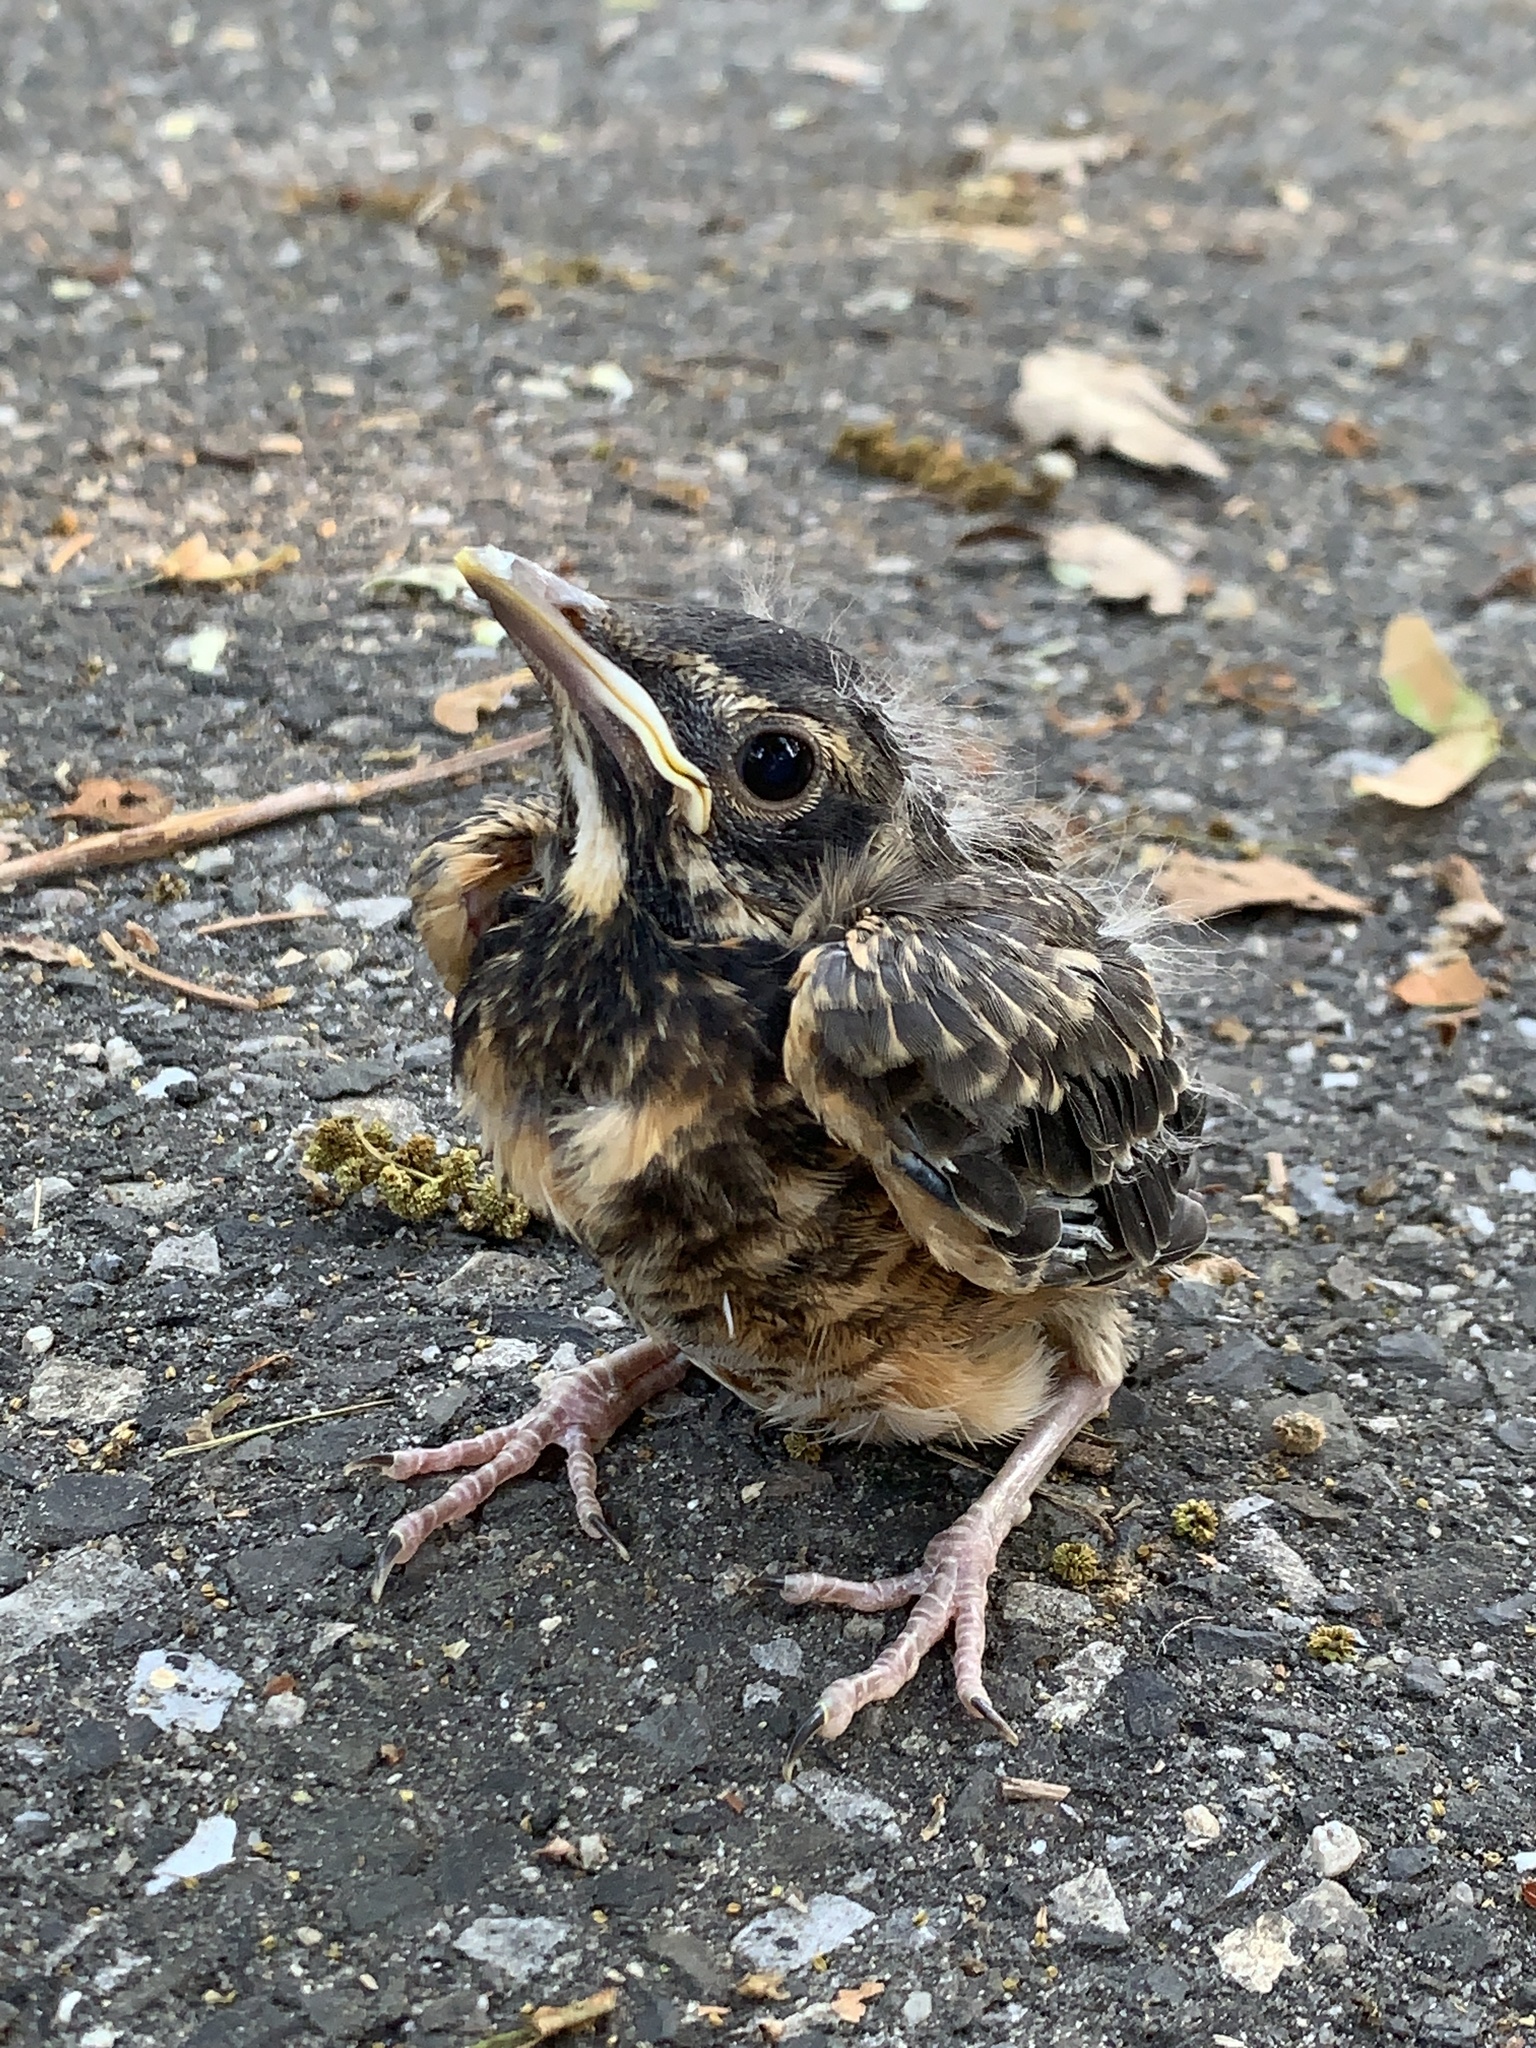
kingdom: Animalia
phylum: Chordata
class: Aves
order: Passeriformes
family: Turdidae
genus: Turdus
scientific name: Turdus migratorius
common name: American robin
